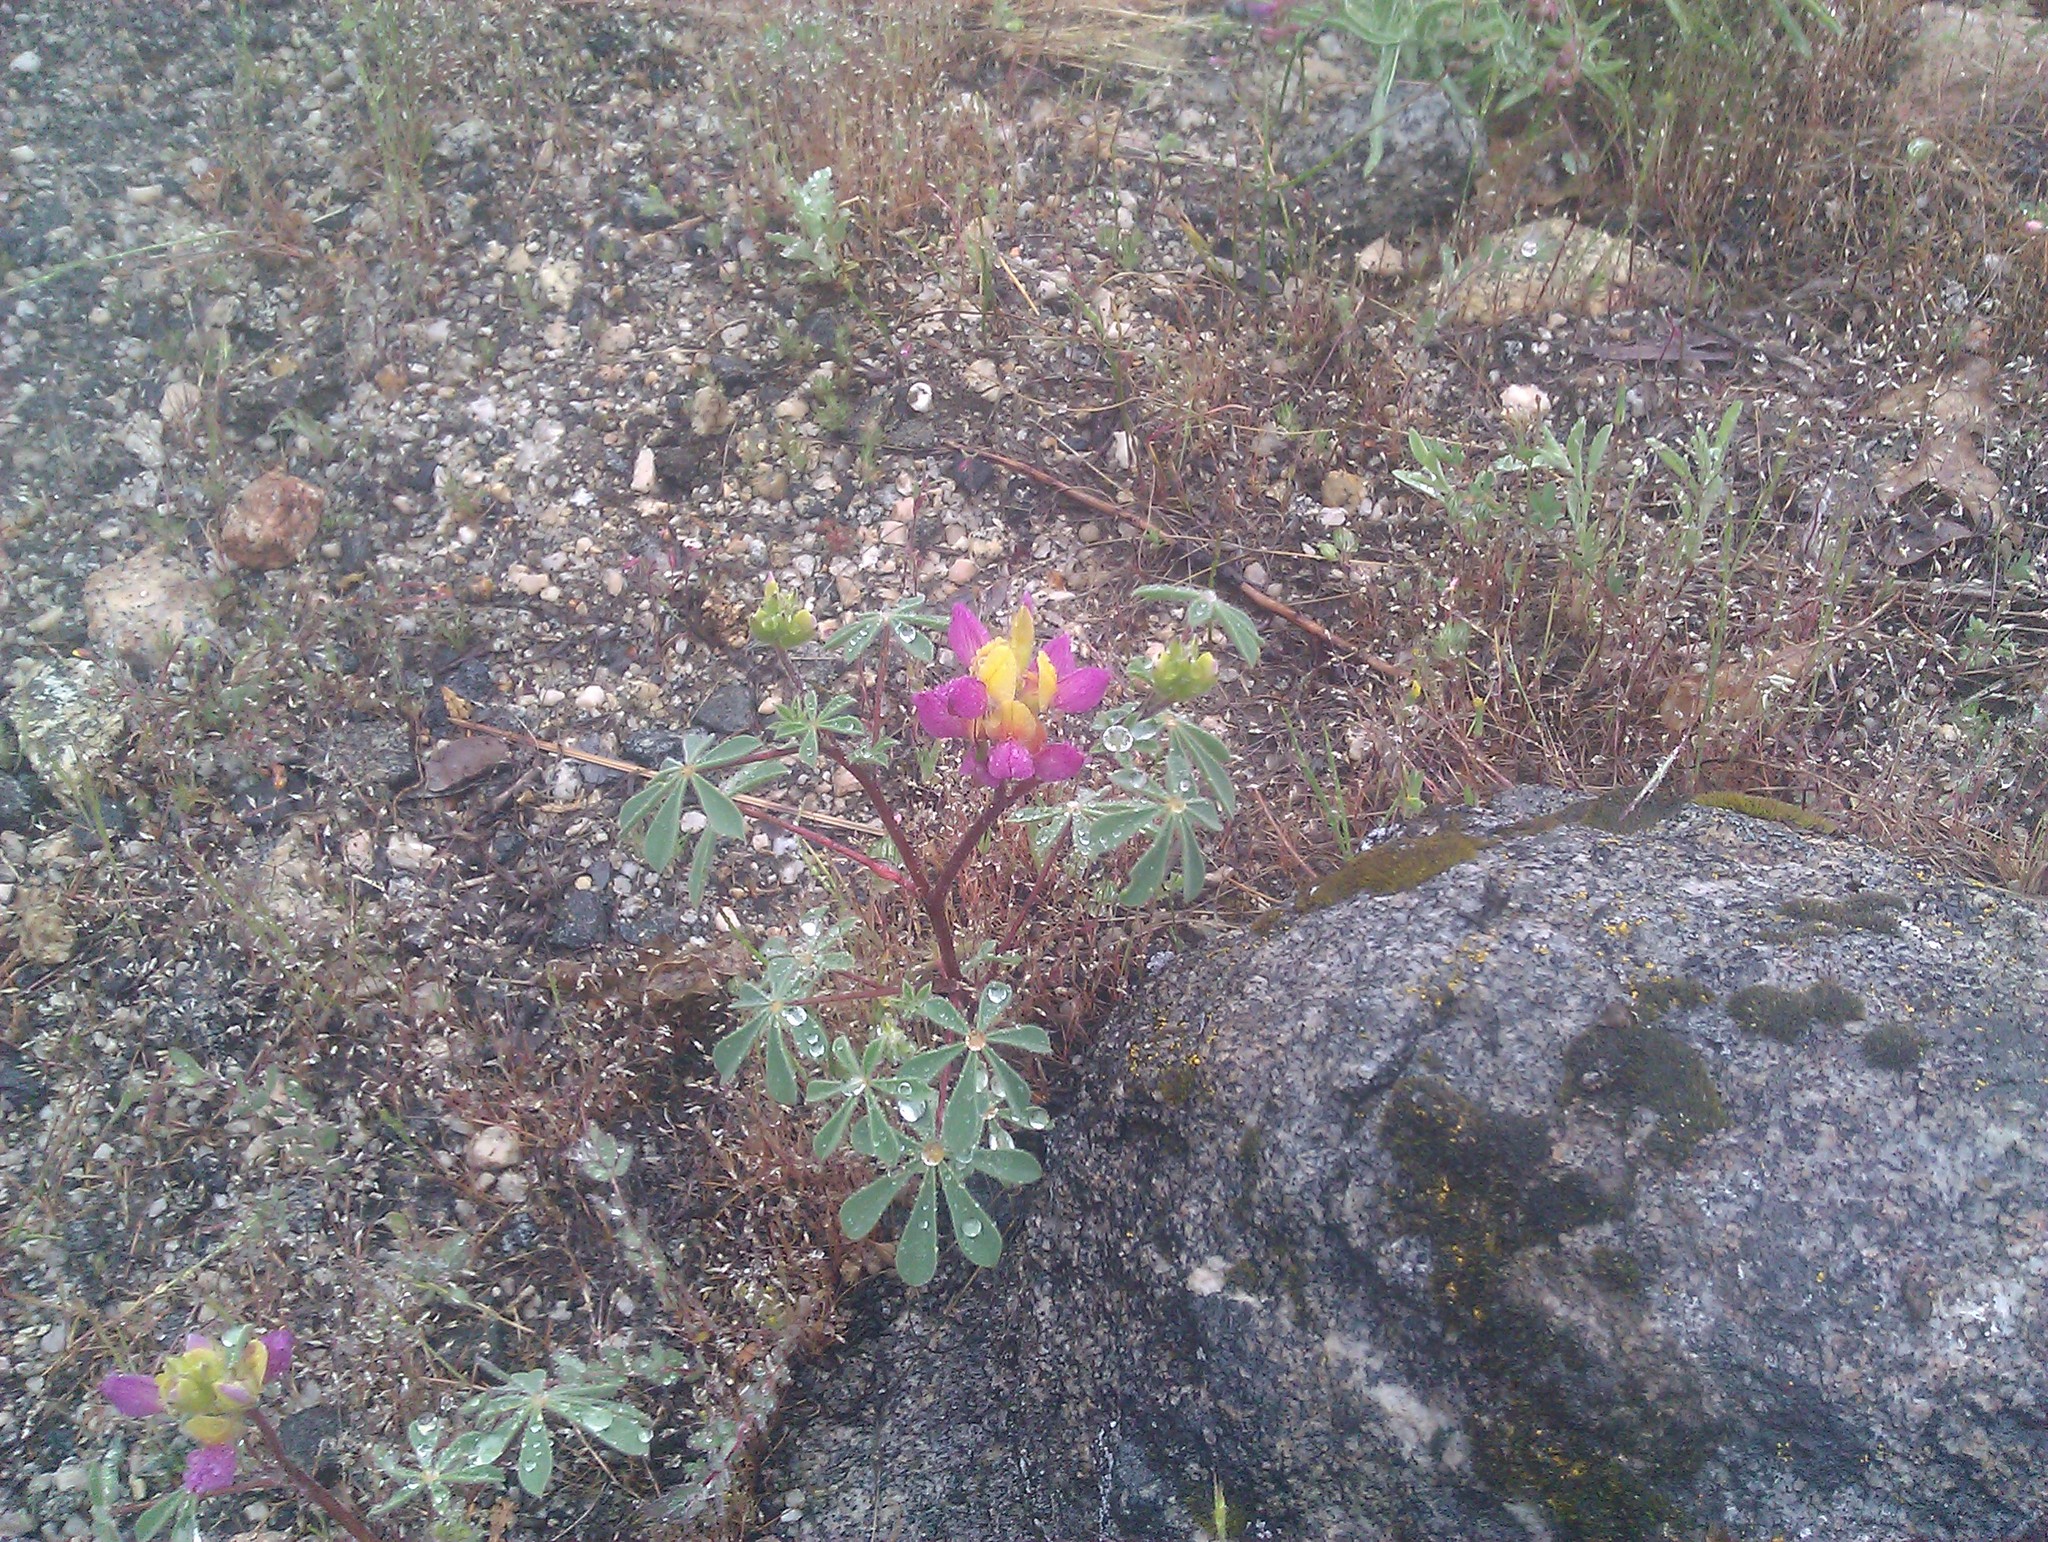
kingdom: Plantae
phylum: Tracheophyta
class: Magnoliopsida
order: Fabales
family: Fabaceae
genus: Lupinus
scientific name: Lupinus stiversii
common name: Harlequin lupine
